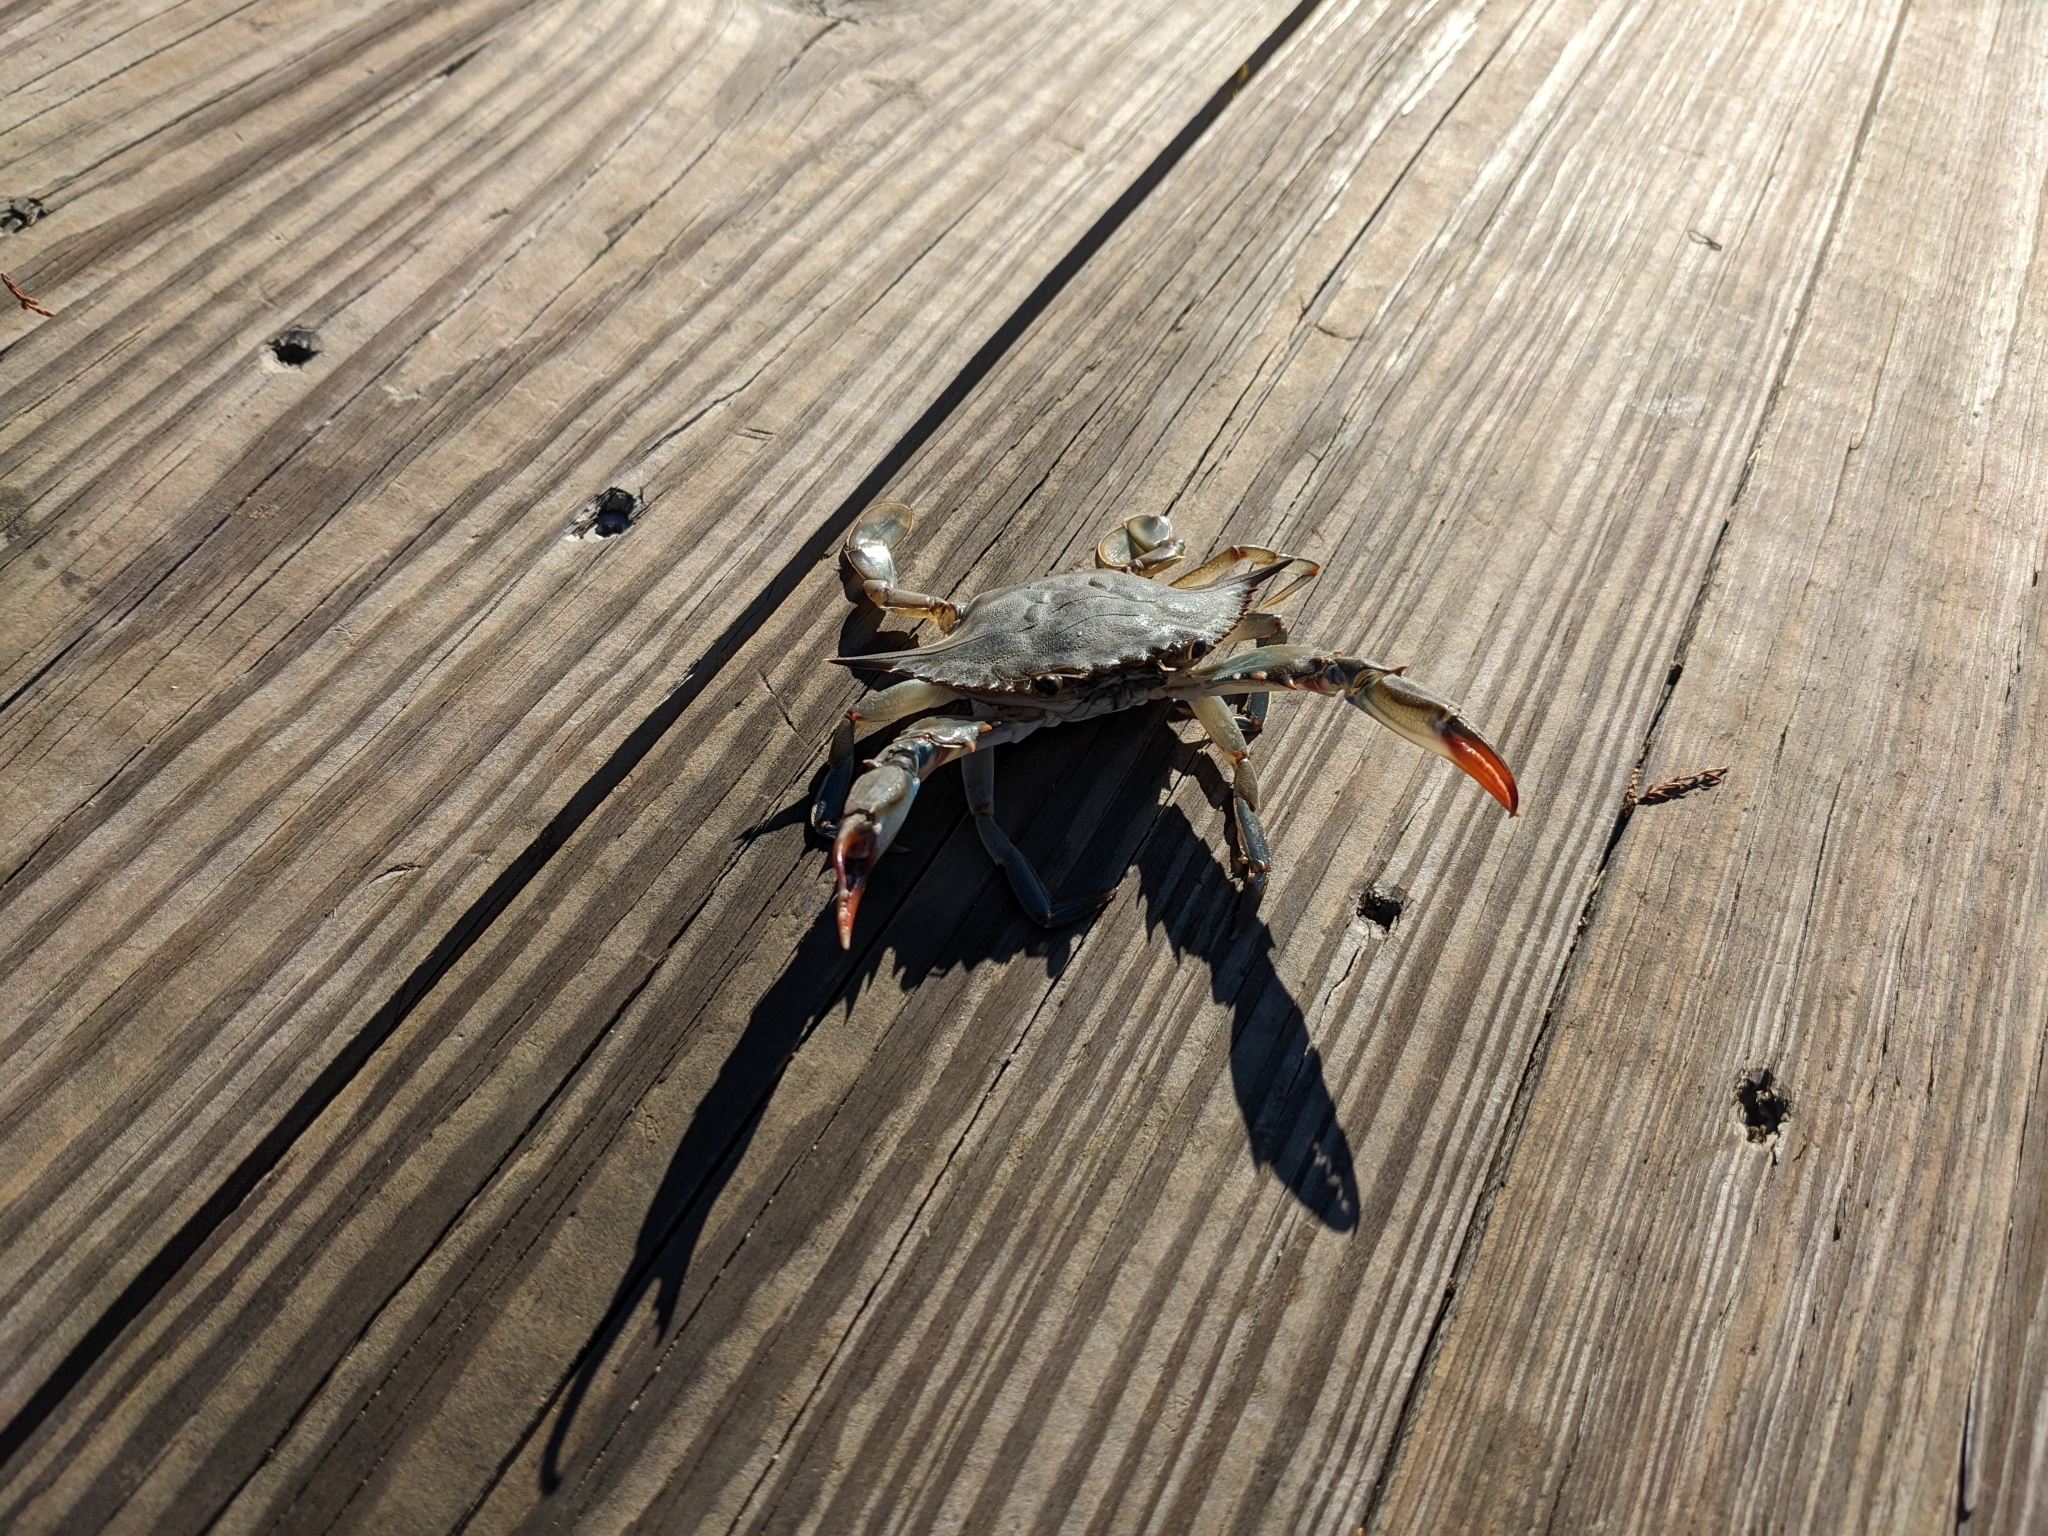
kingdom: Animalia
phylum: Arthropoda
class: Malacostraca
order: Decapoda
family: Portunidae
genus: Callinectes
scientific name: Callinectes sapidus
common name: Blue crab
